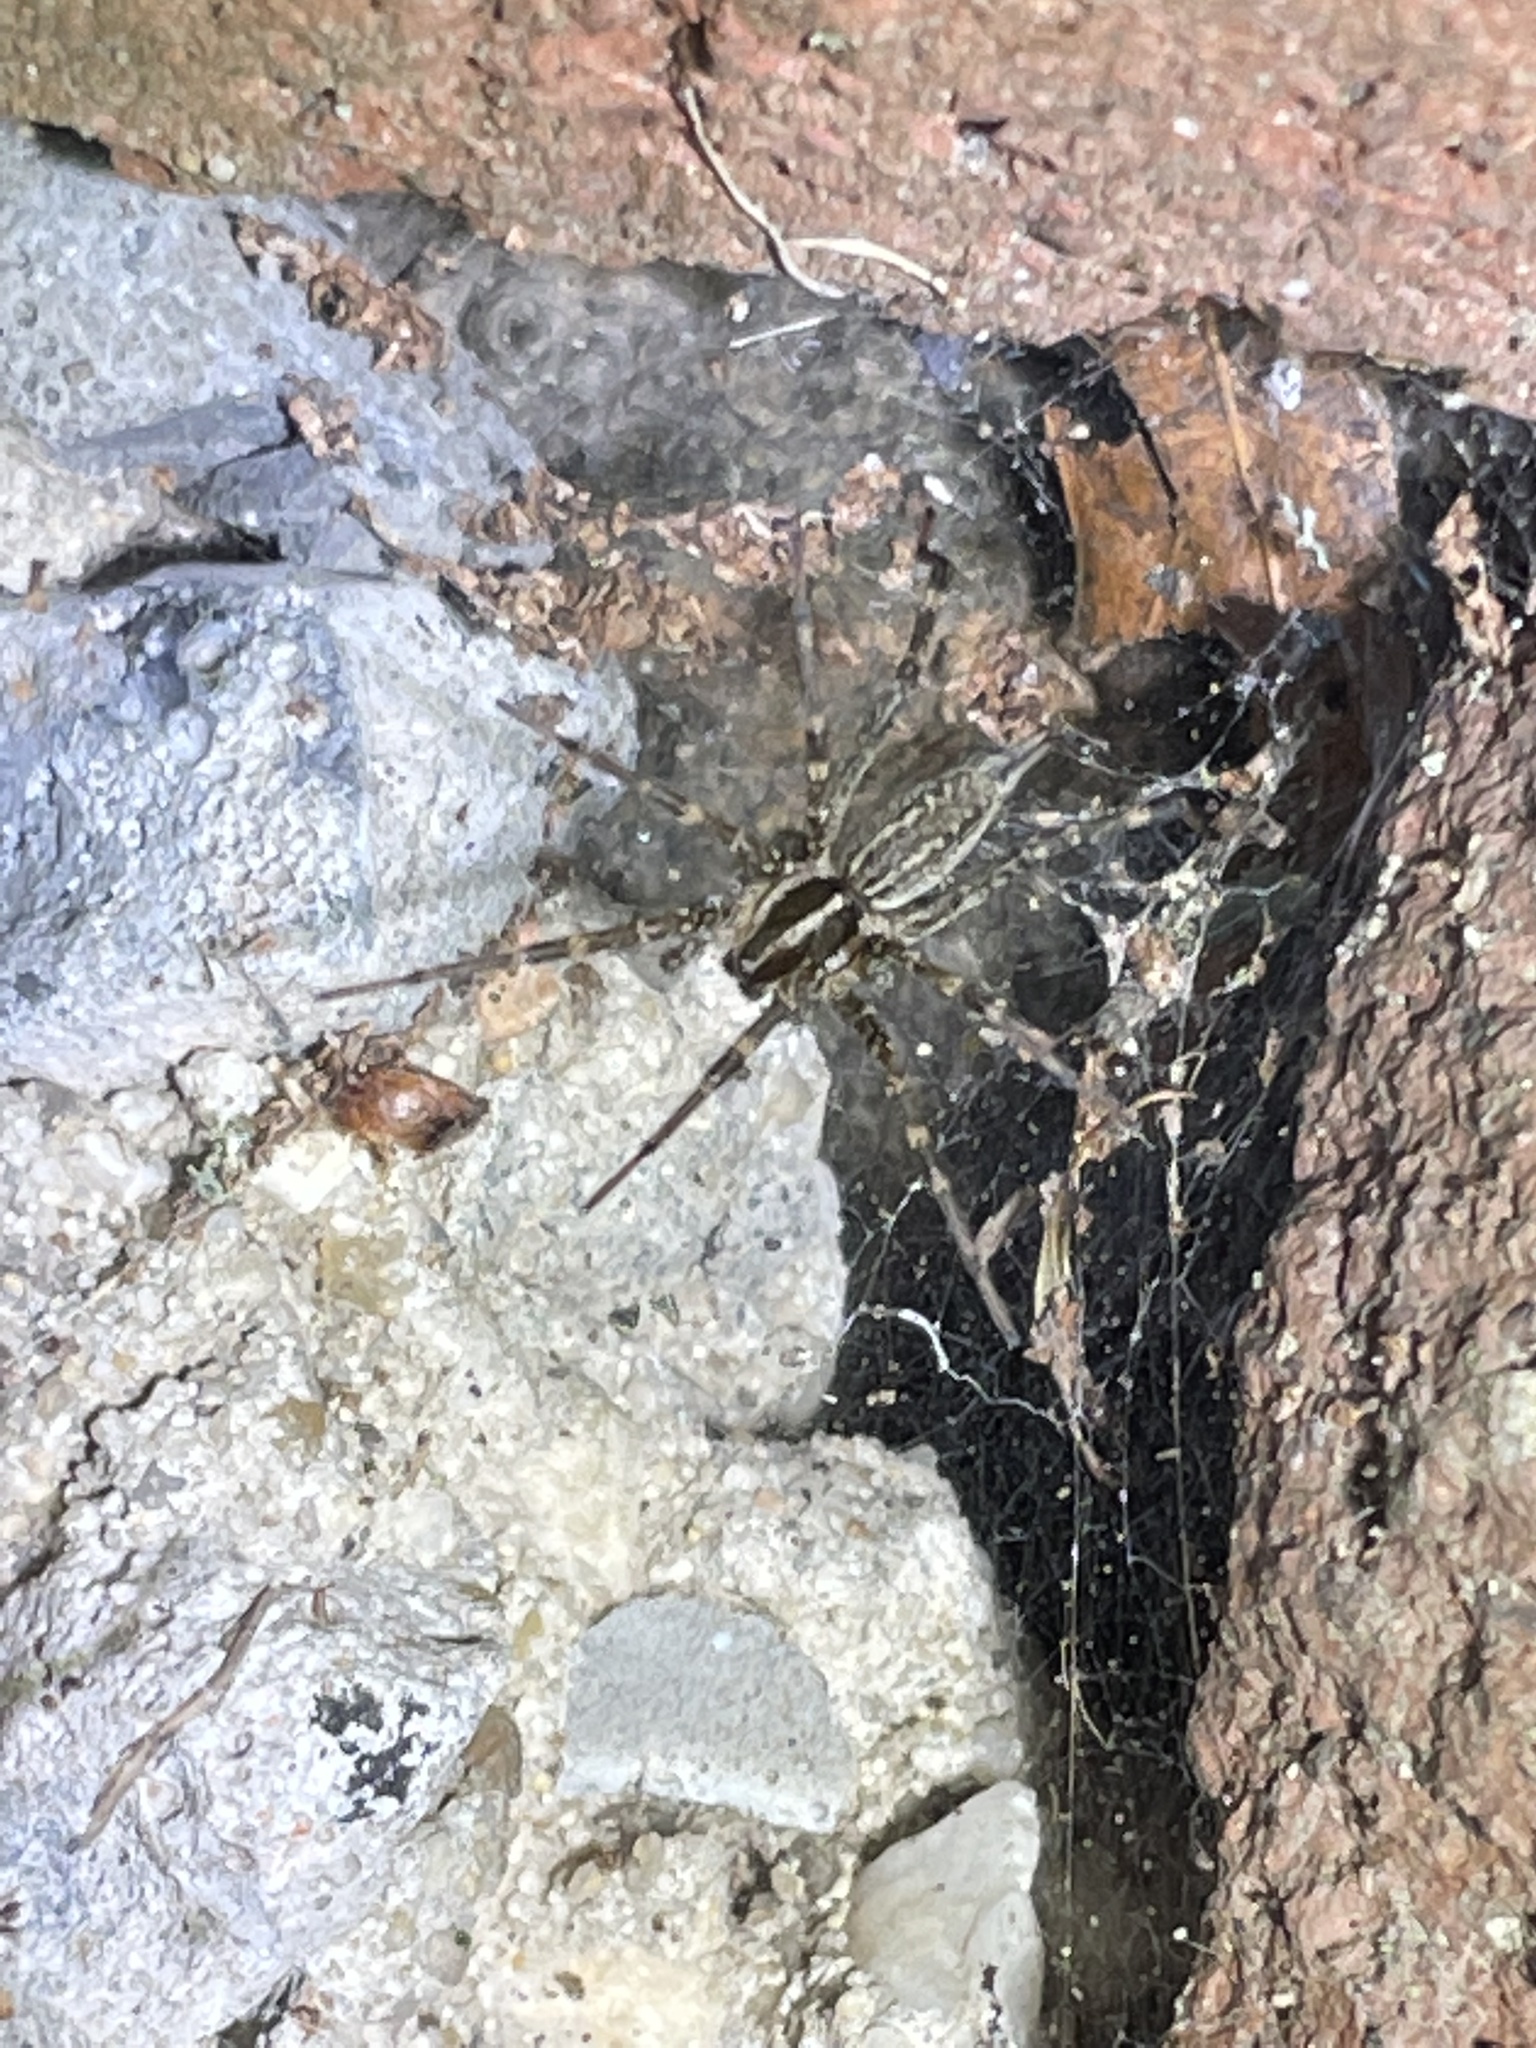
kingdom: Animalia
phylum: Arthropoda
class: Arachnida
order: Araneae
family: Agelenidae
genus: Agelenopsis
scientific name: Agelenopsis
